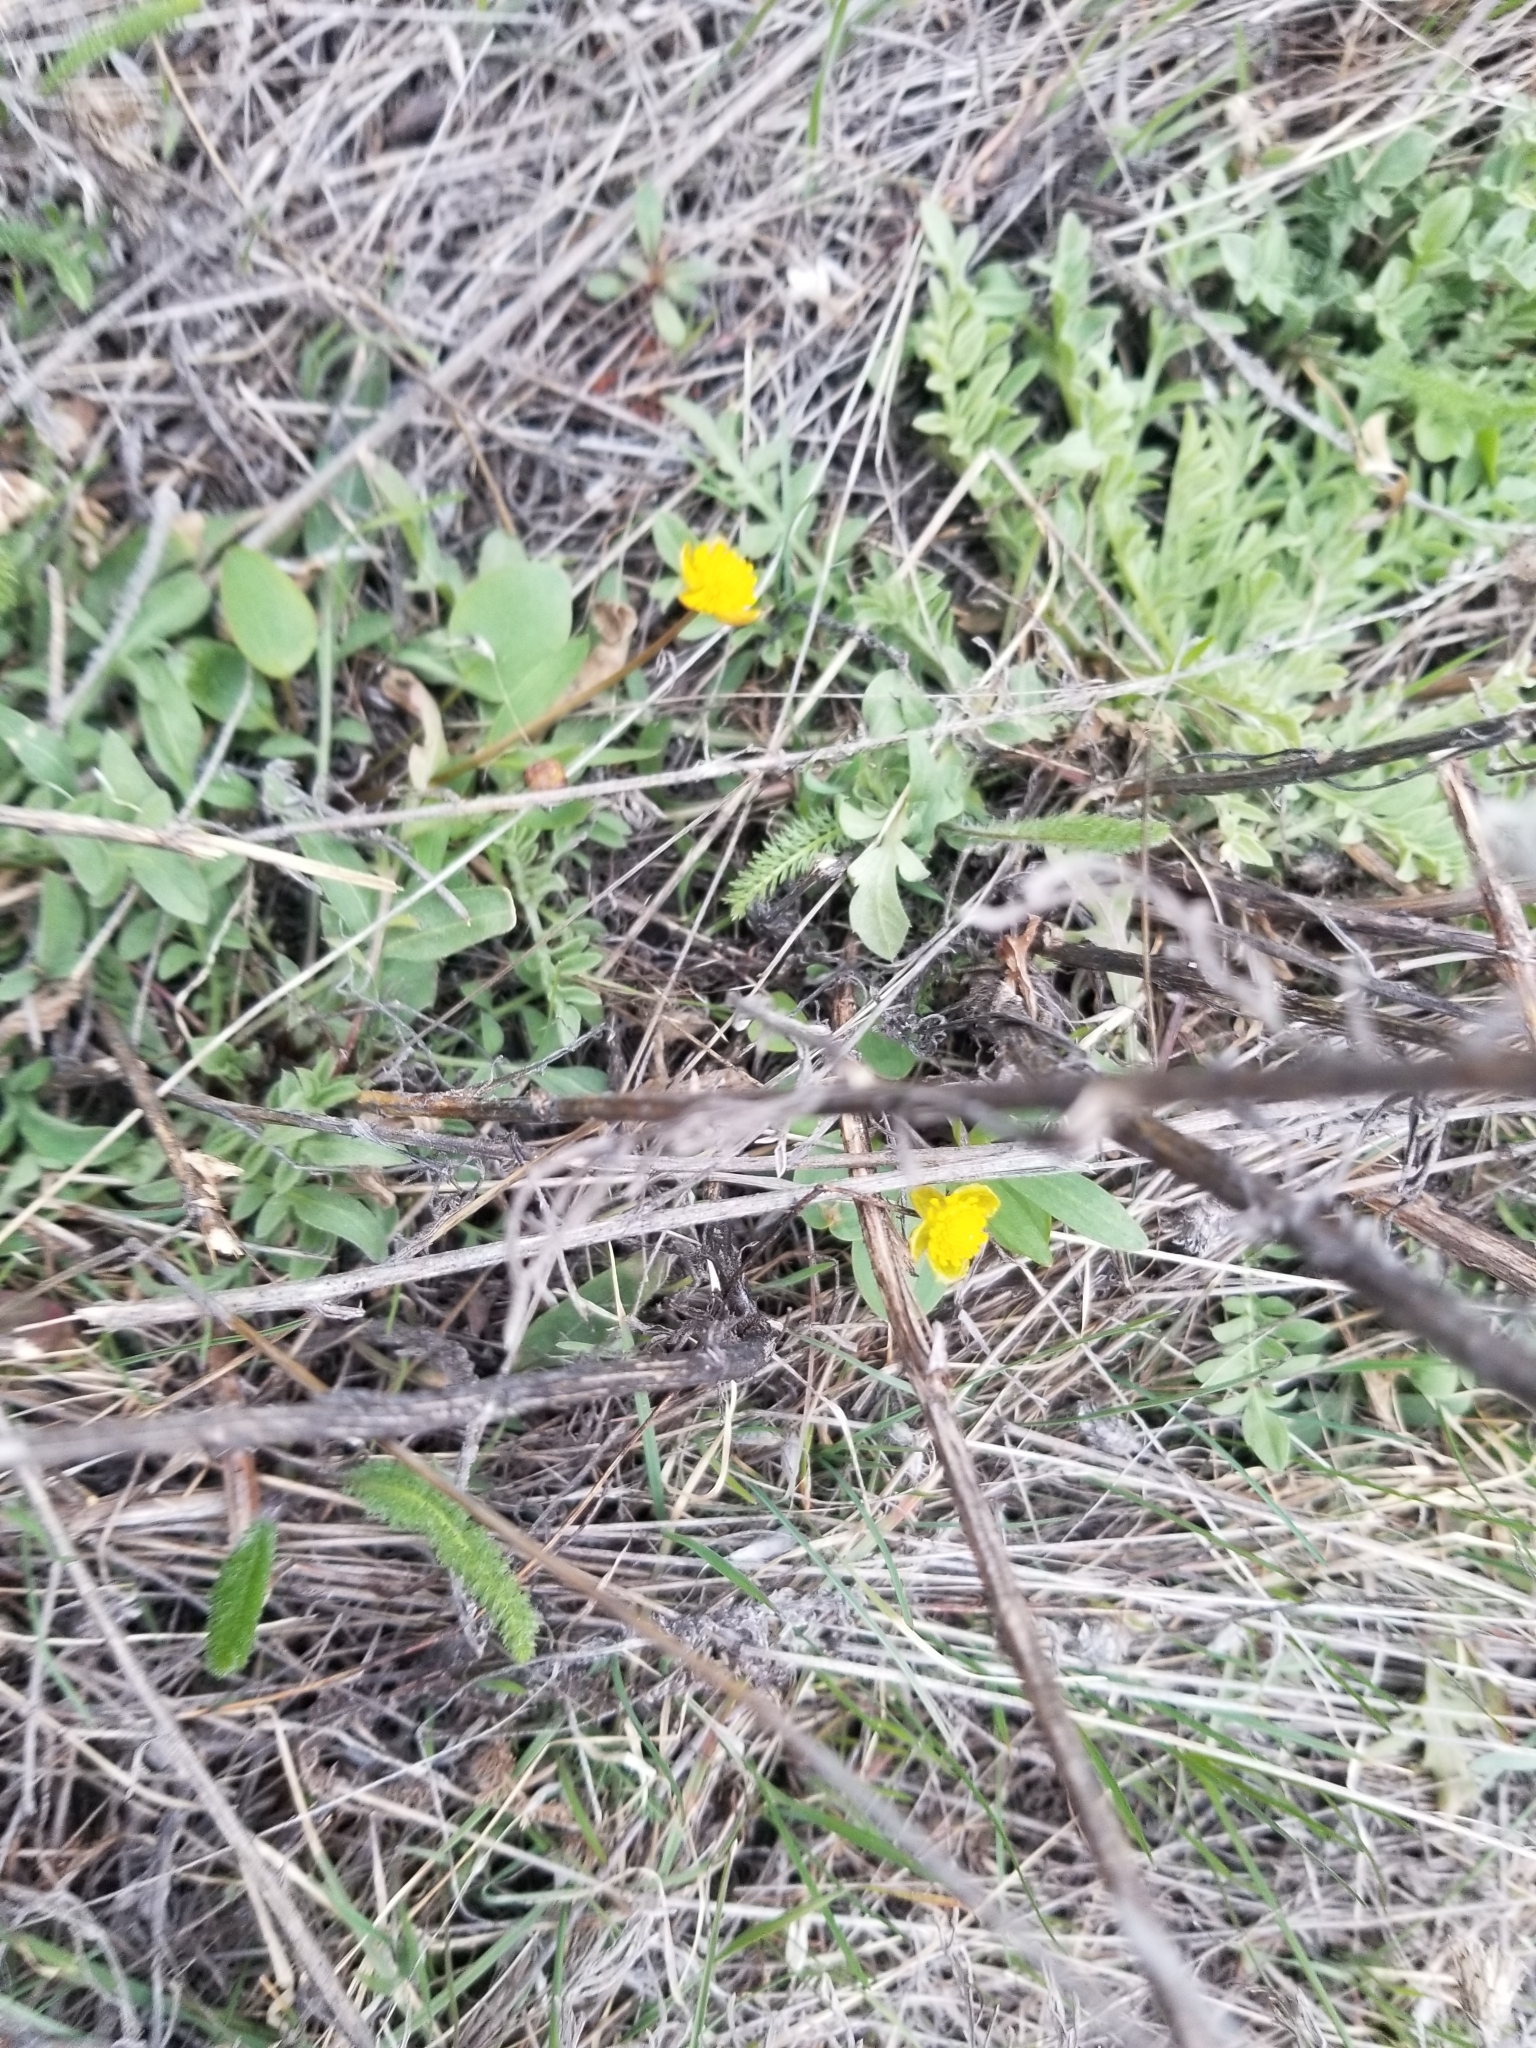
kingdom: Plantae
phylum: Tracheophyta
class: Magnoliopsida
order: Ranunculales
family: Ranunculaceae
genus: Ranunculus
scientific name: Ranunculus glaberrimus
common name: Sagebrush buttercup
